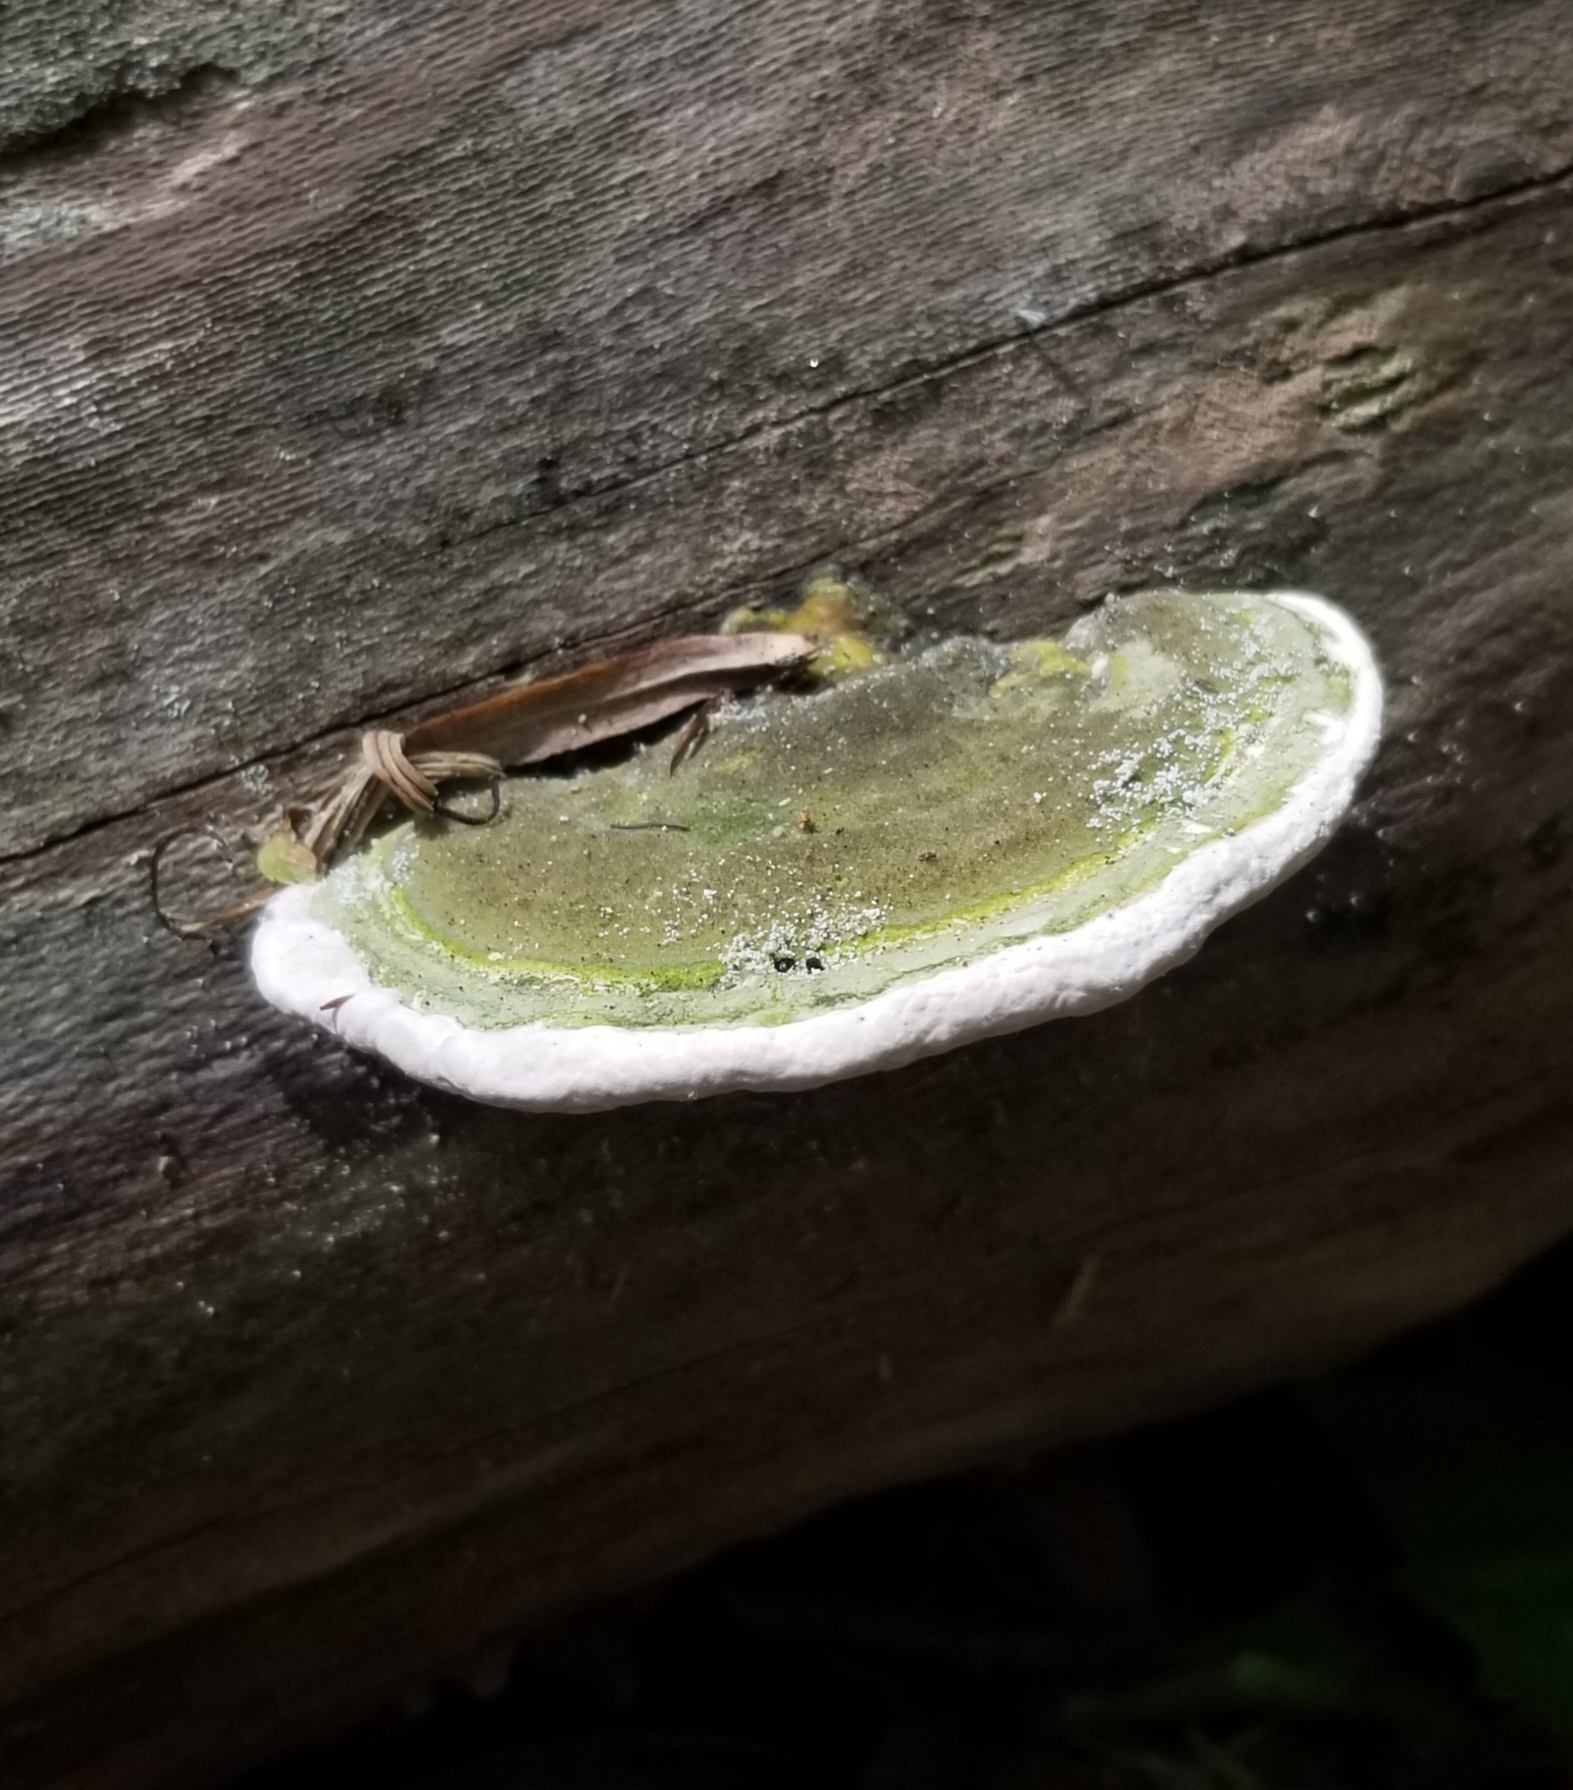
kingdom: Fungi
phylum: Basidiomycota
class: Agaricomycetes
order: Polyporales
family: Polyporaceae
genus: Trametes
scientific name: Trametes gibbosa
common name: Lumpy bracket
